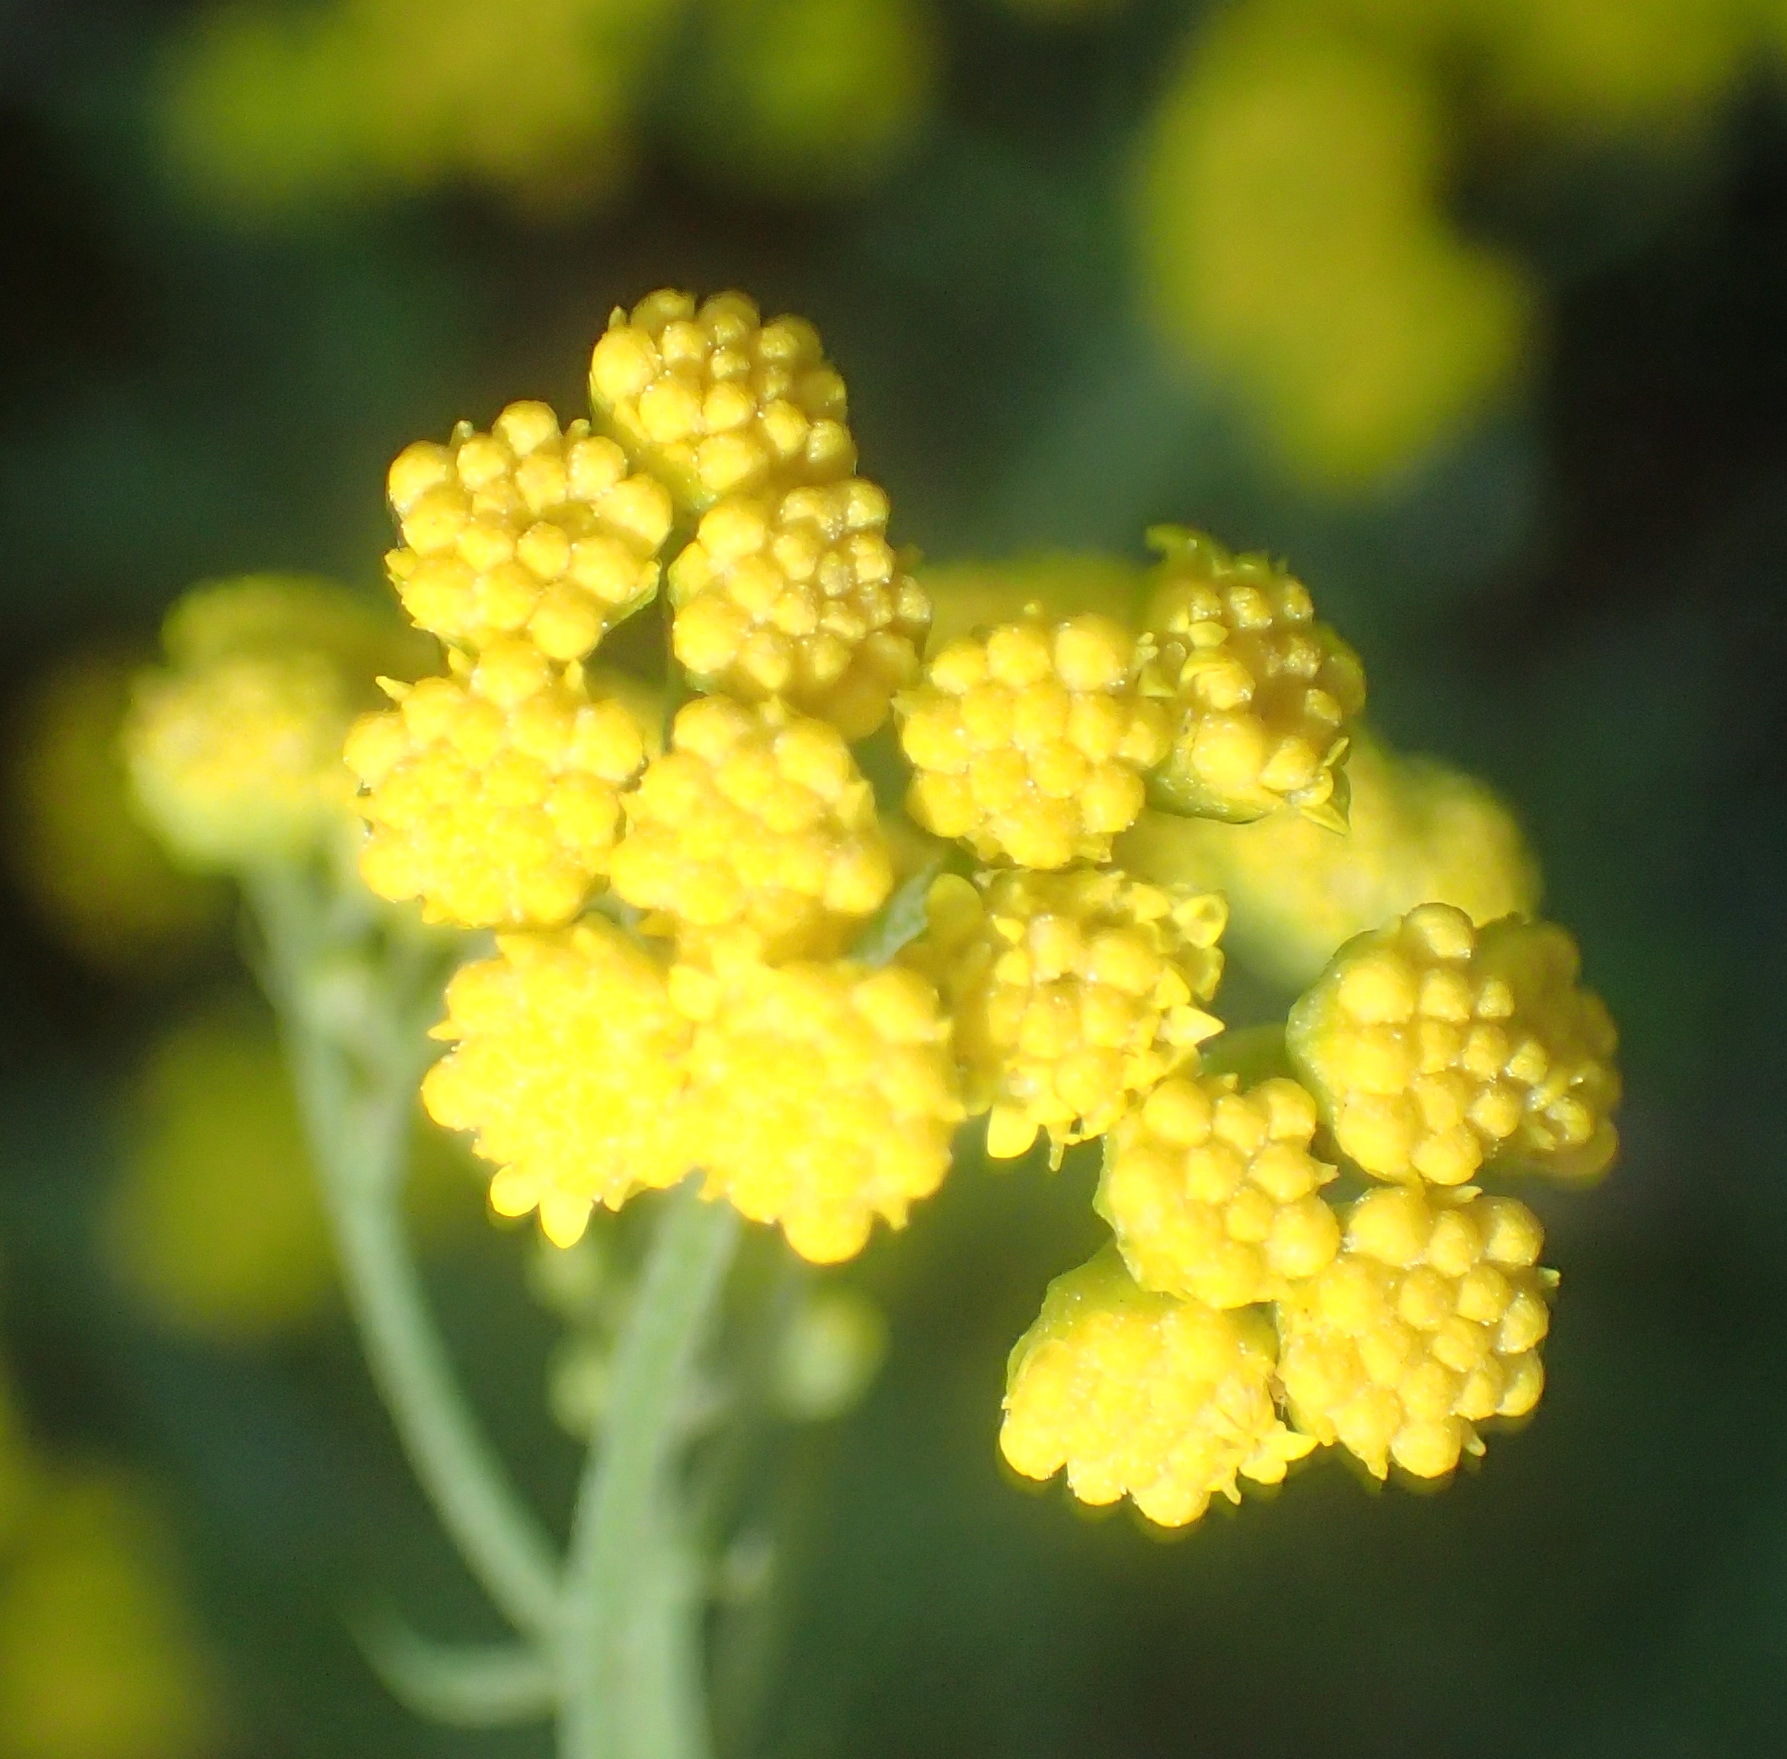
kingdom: Plantae
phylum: Tracheophyta
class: Magnoliopsida
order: Asterales
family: Asteraceae
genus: Hippia
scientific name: Hippia frutescens
